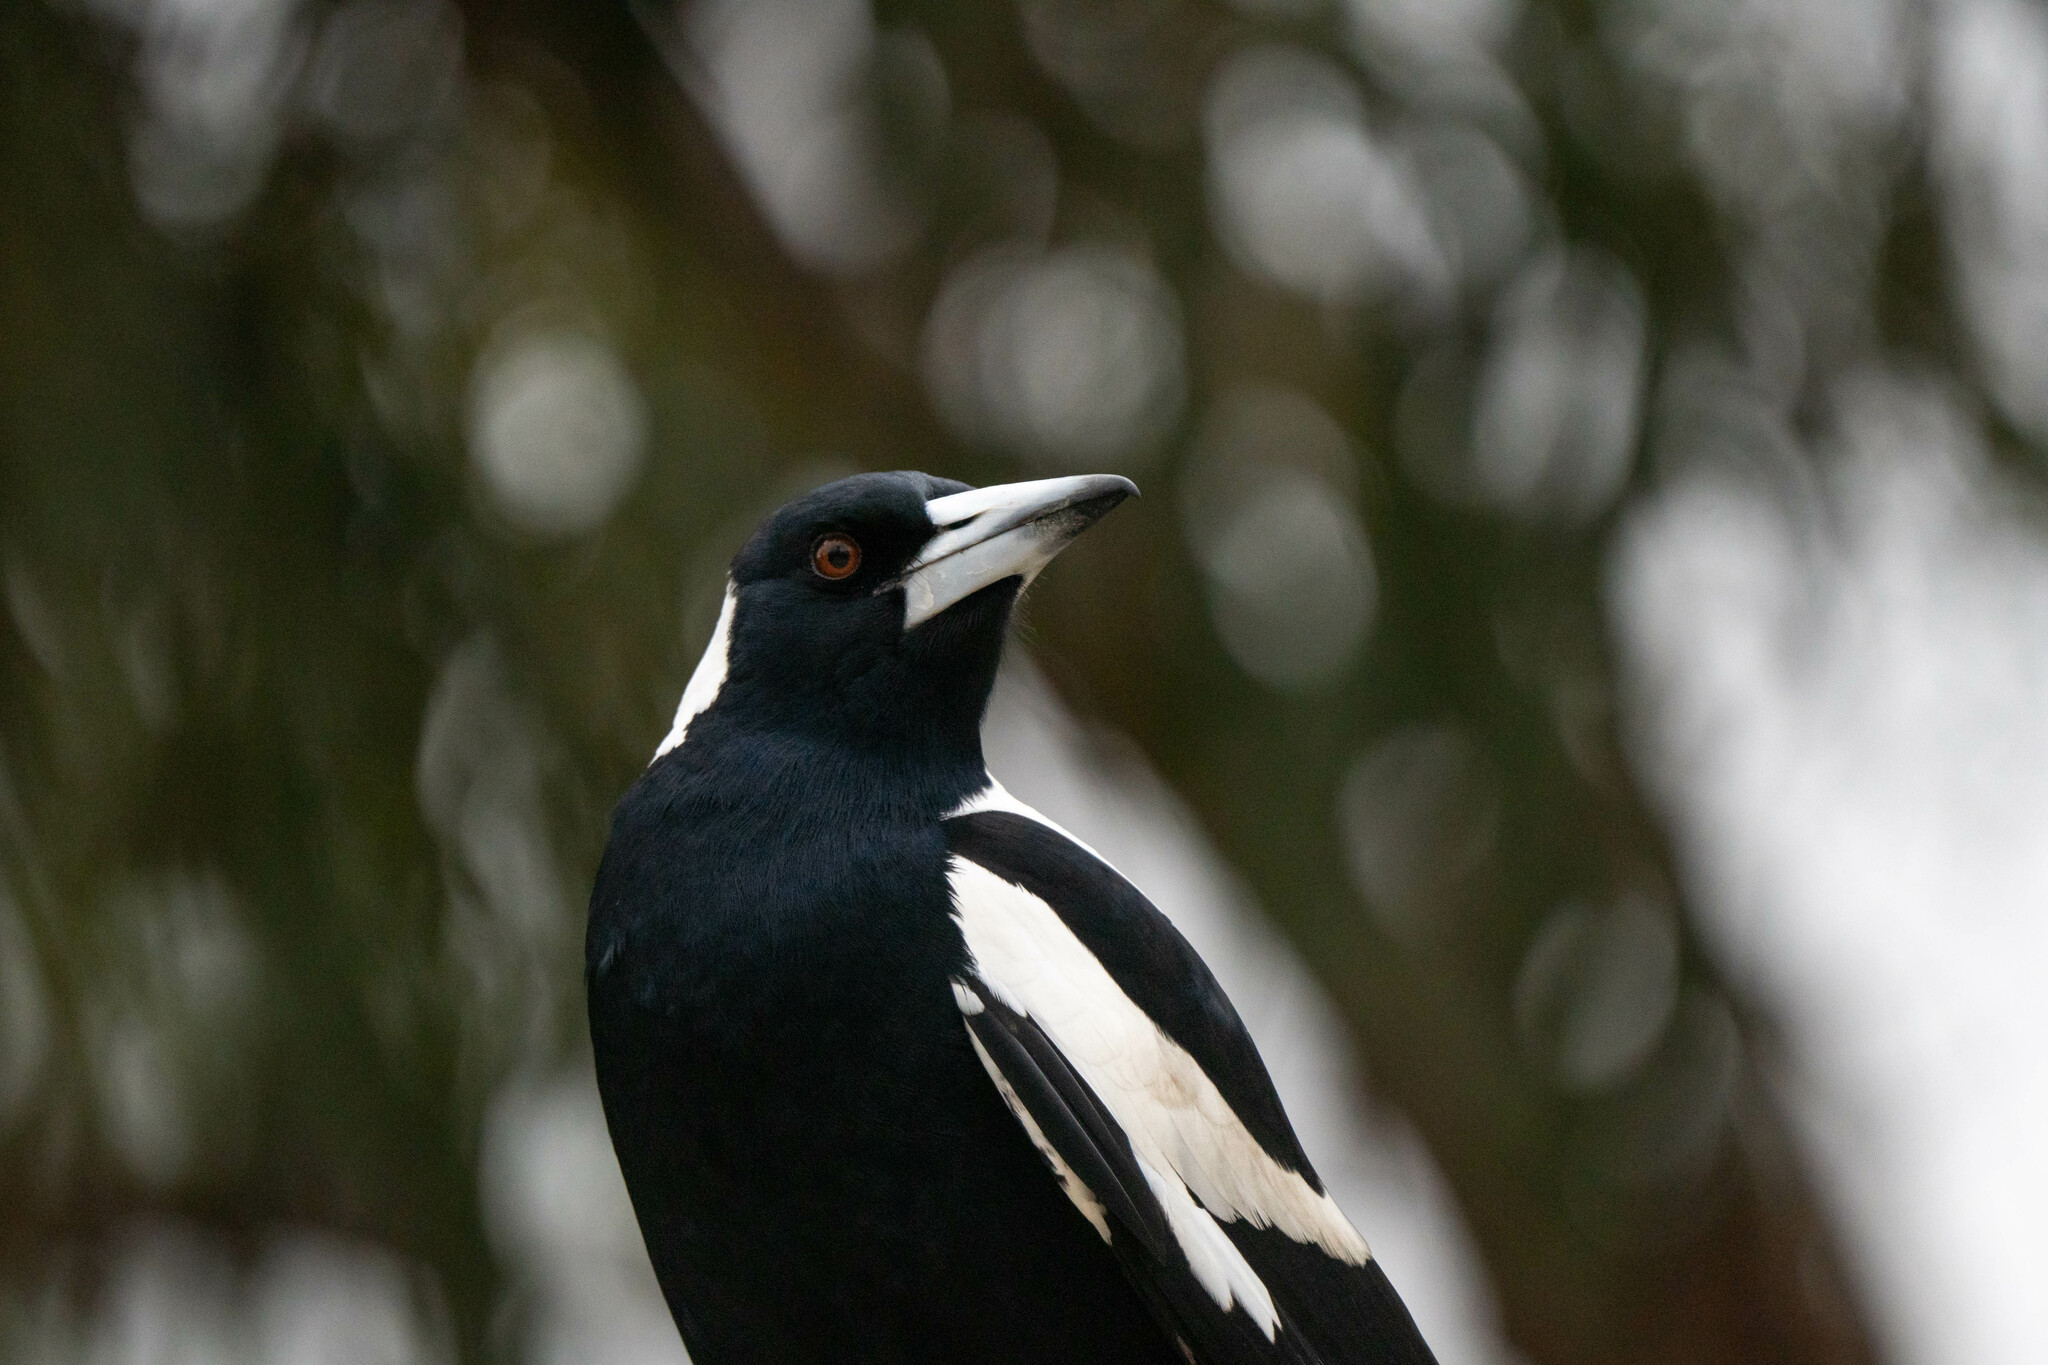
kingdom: Animalia
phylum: Chordata
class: Aves
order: Passeriformes
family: Cracticidae
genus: Gymnorhina
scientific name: Gymnorhina tibicen
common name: Australian magpie
